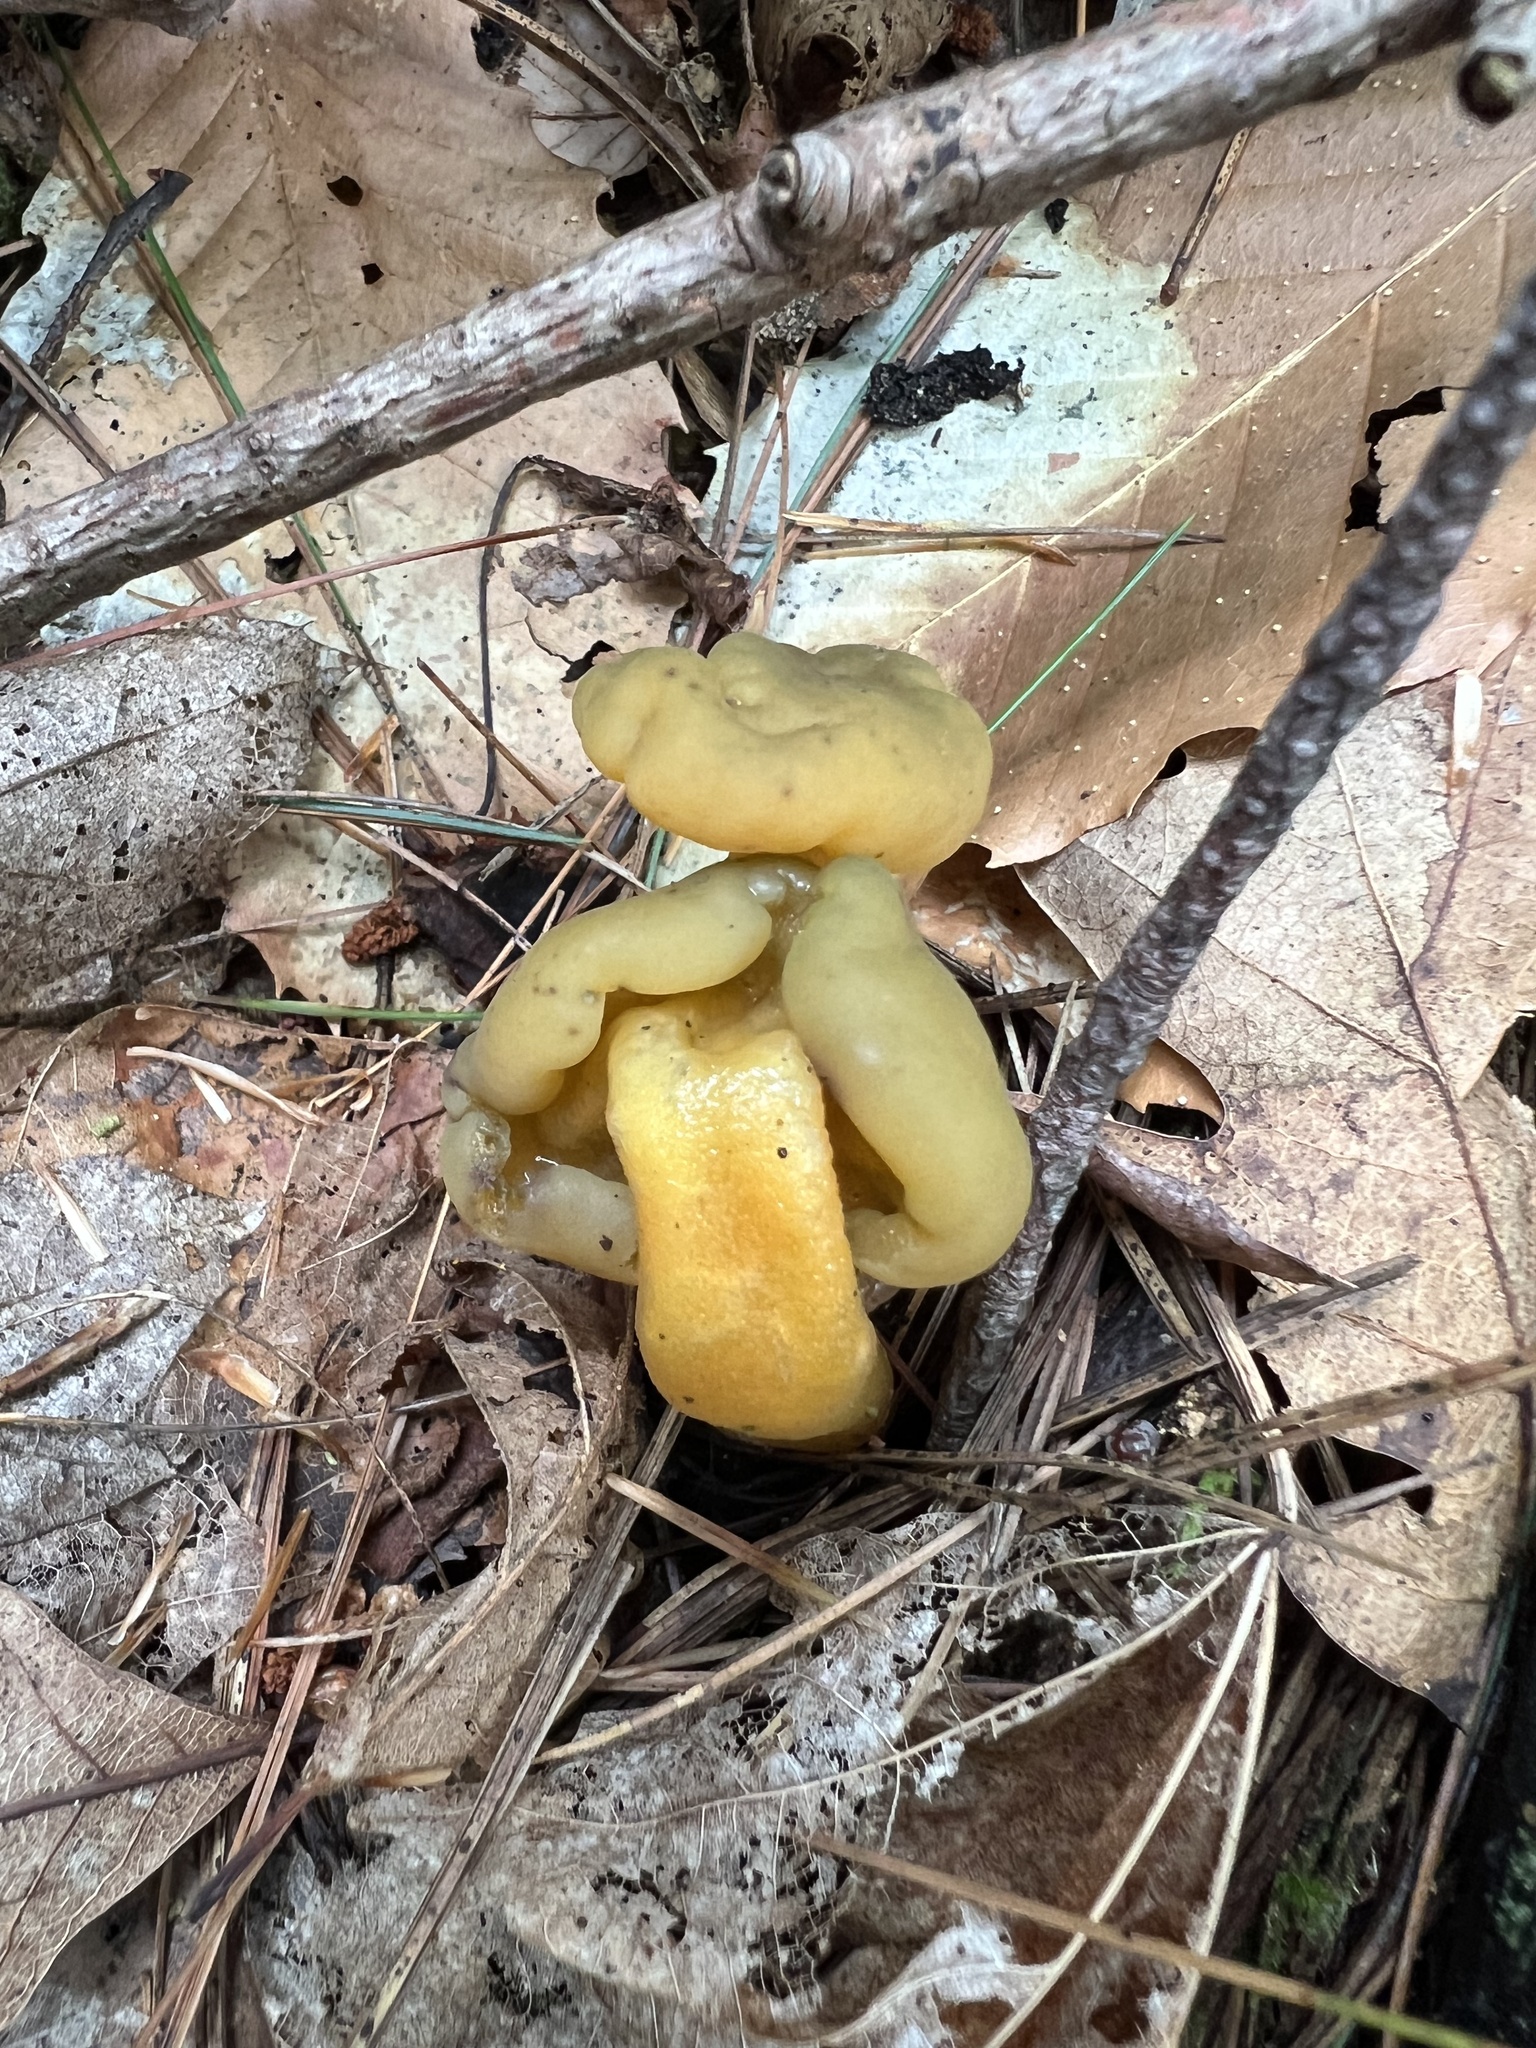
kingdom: Fungi
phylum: Ascomycota
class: Leotiomycetes
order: Leotiales
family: Leotiaceae
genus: Leotia
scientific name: Leotia lubrica
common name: Jellybaby
